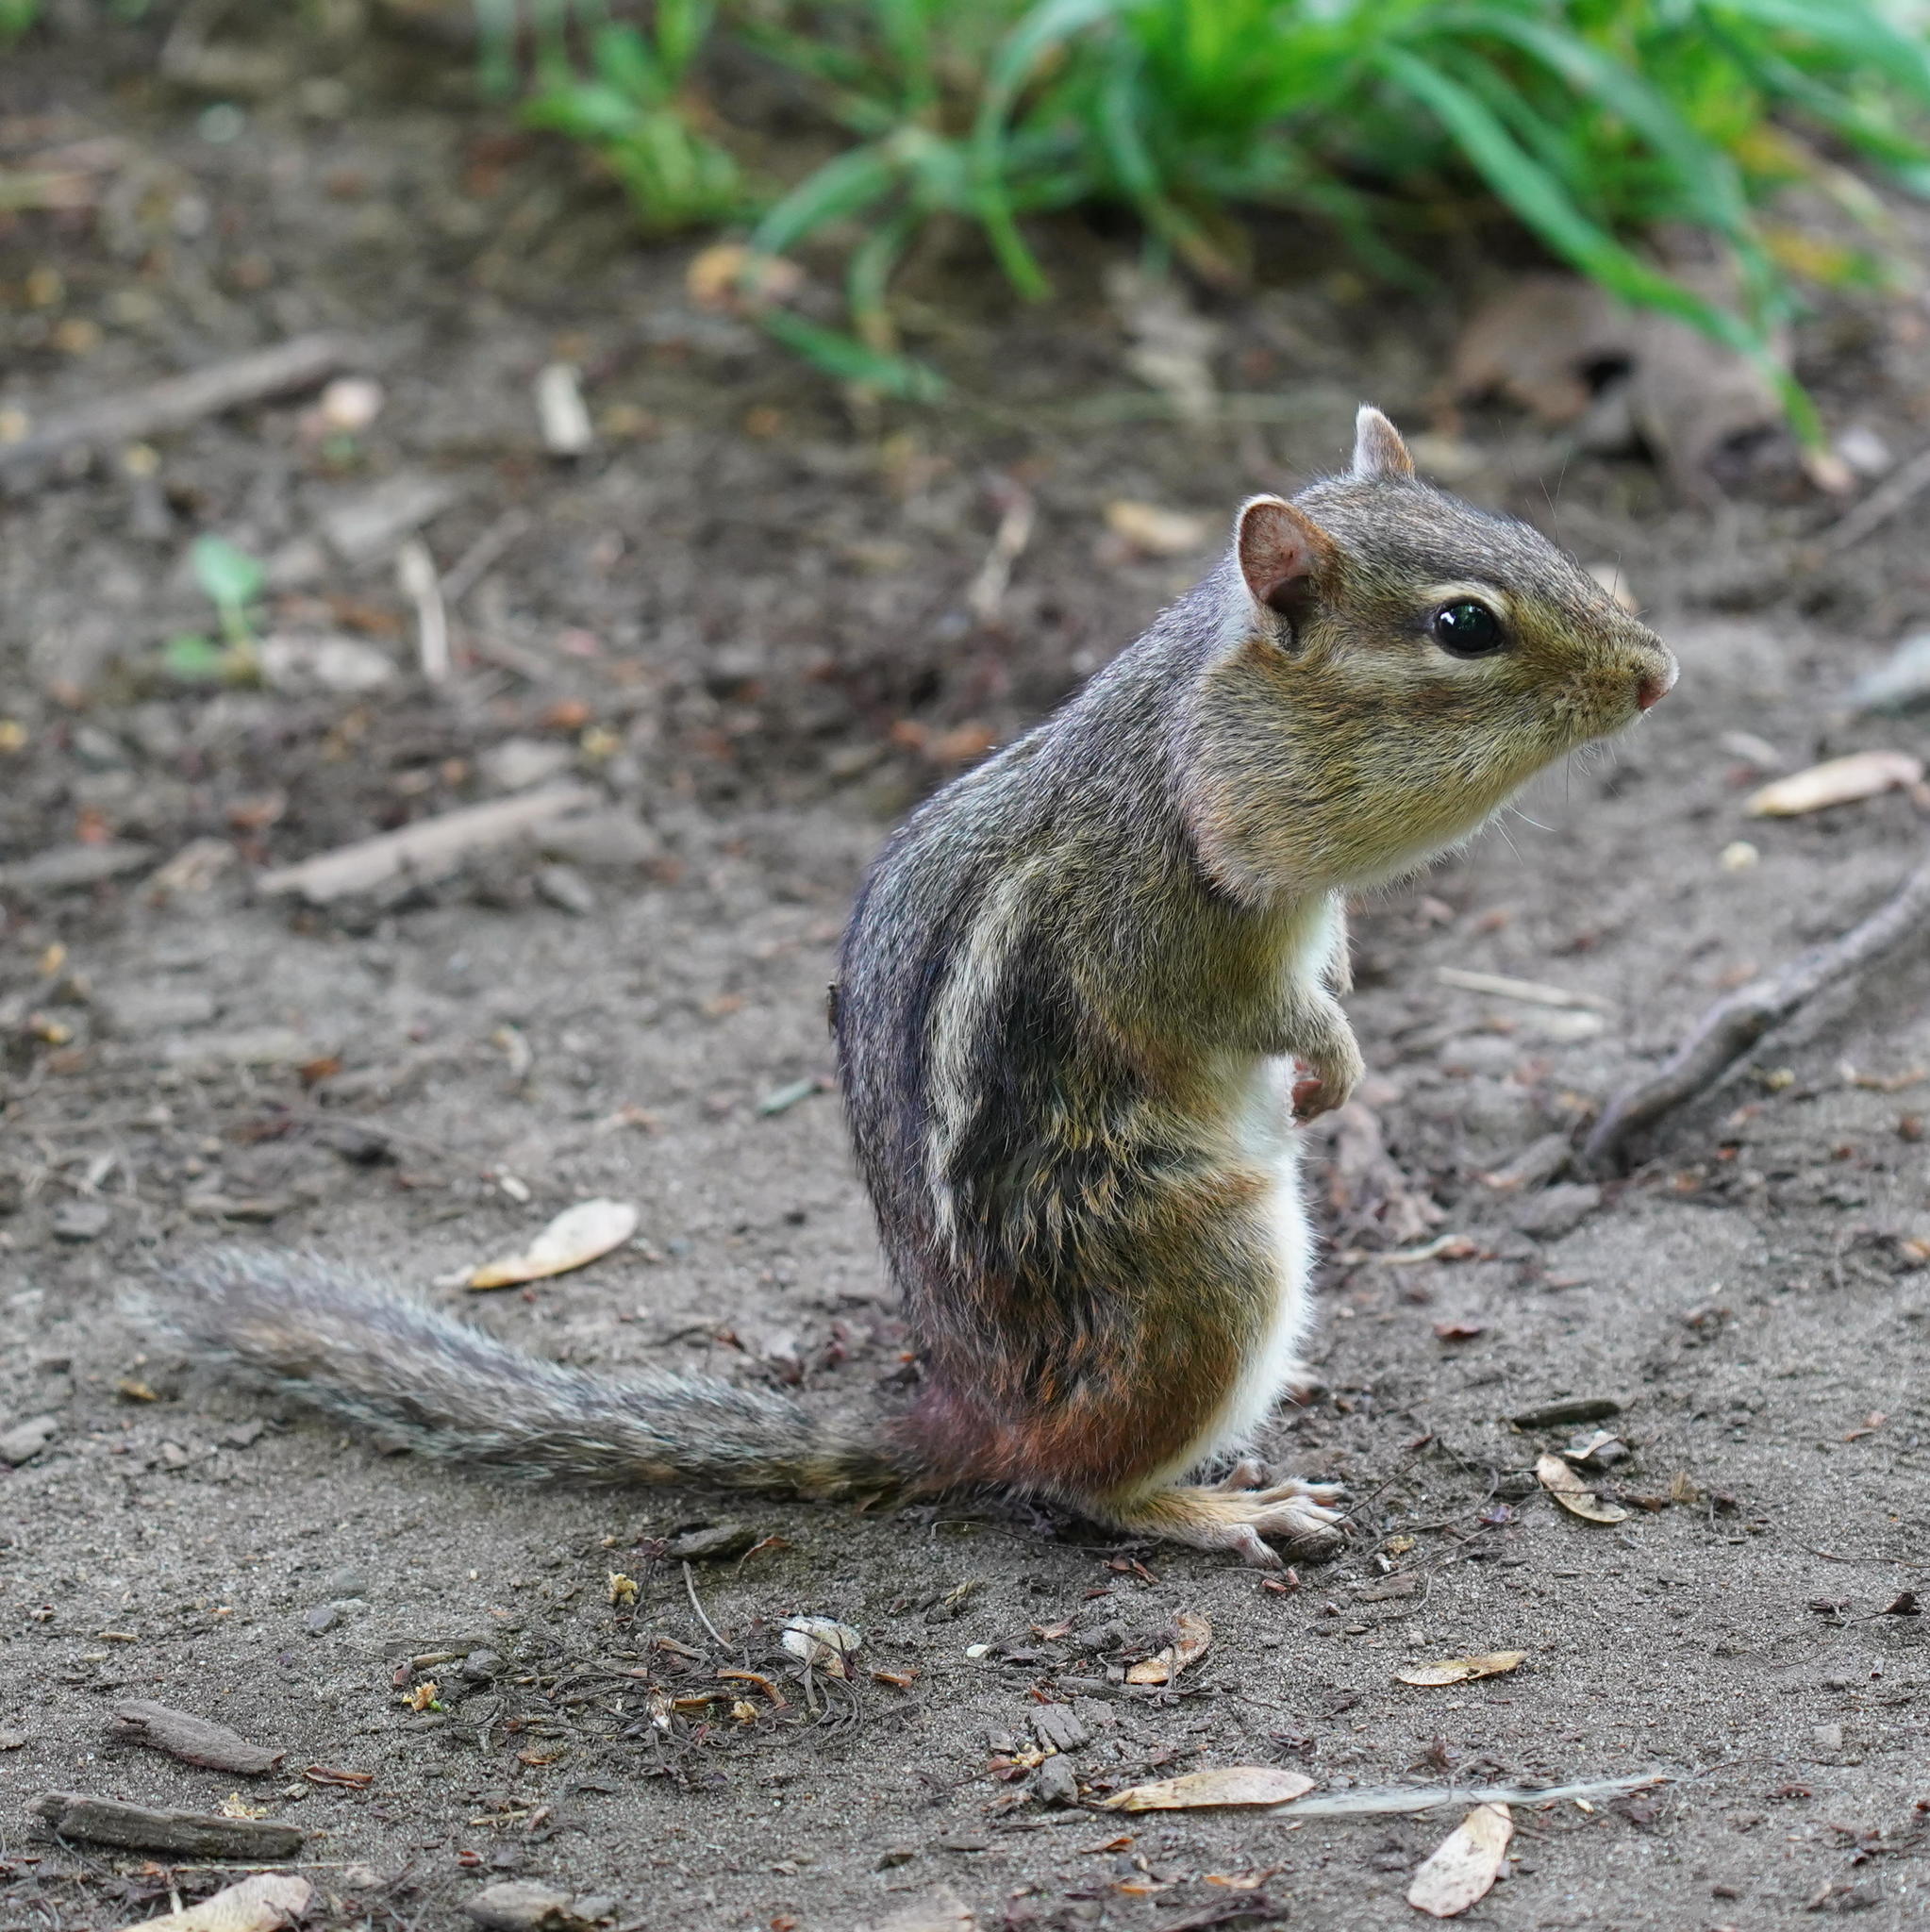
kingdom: Animalia
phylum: Chordata
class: Mammalia
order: Rodentia
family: Sciuridae
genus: Tamias
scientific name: Tamias striatus
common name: Eastern chipmunk
